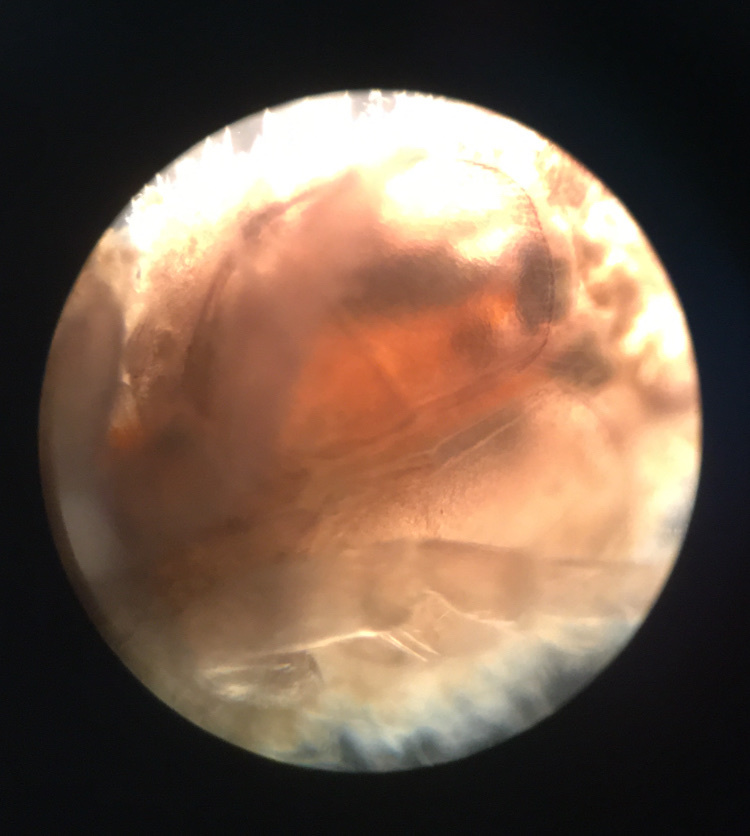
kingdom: Animalia
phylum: Arthropoda
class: Malacostraca
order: Isopoda
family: Asellidae
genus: Caecidotea
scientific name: Caecidotea
